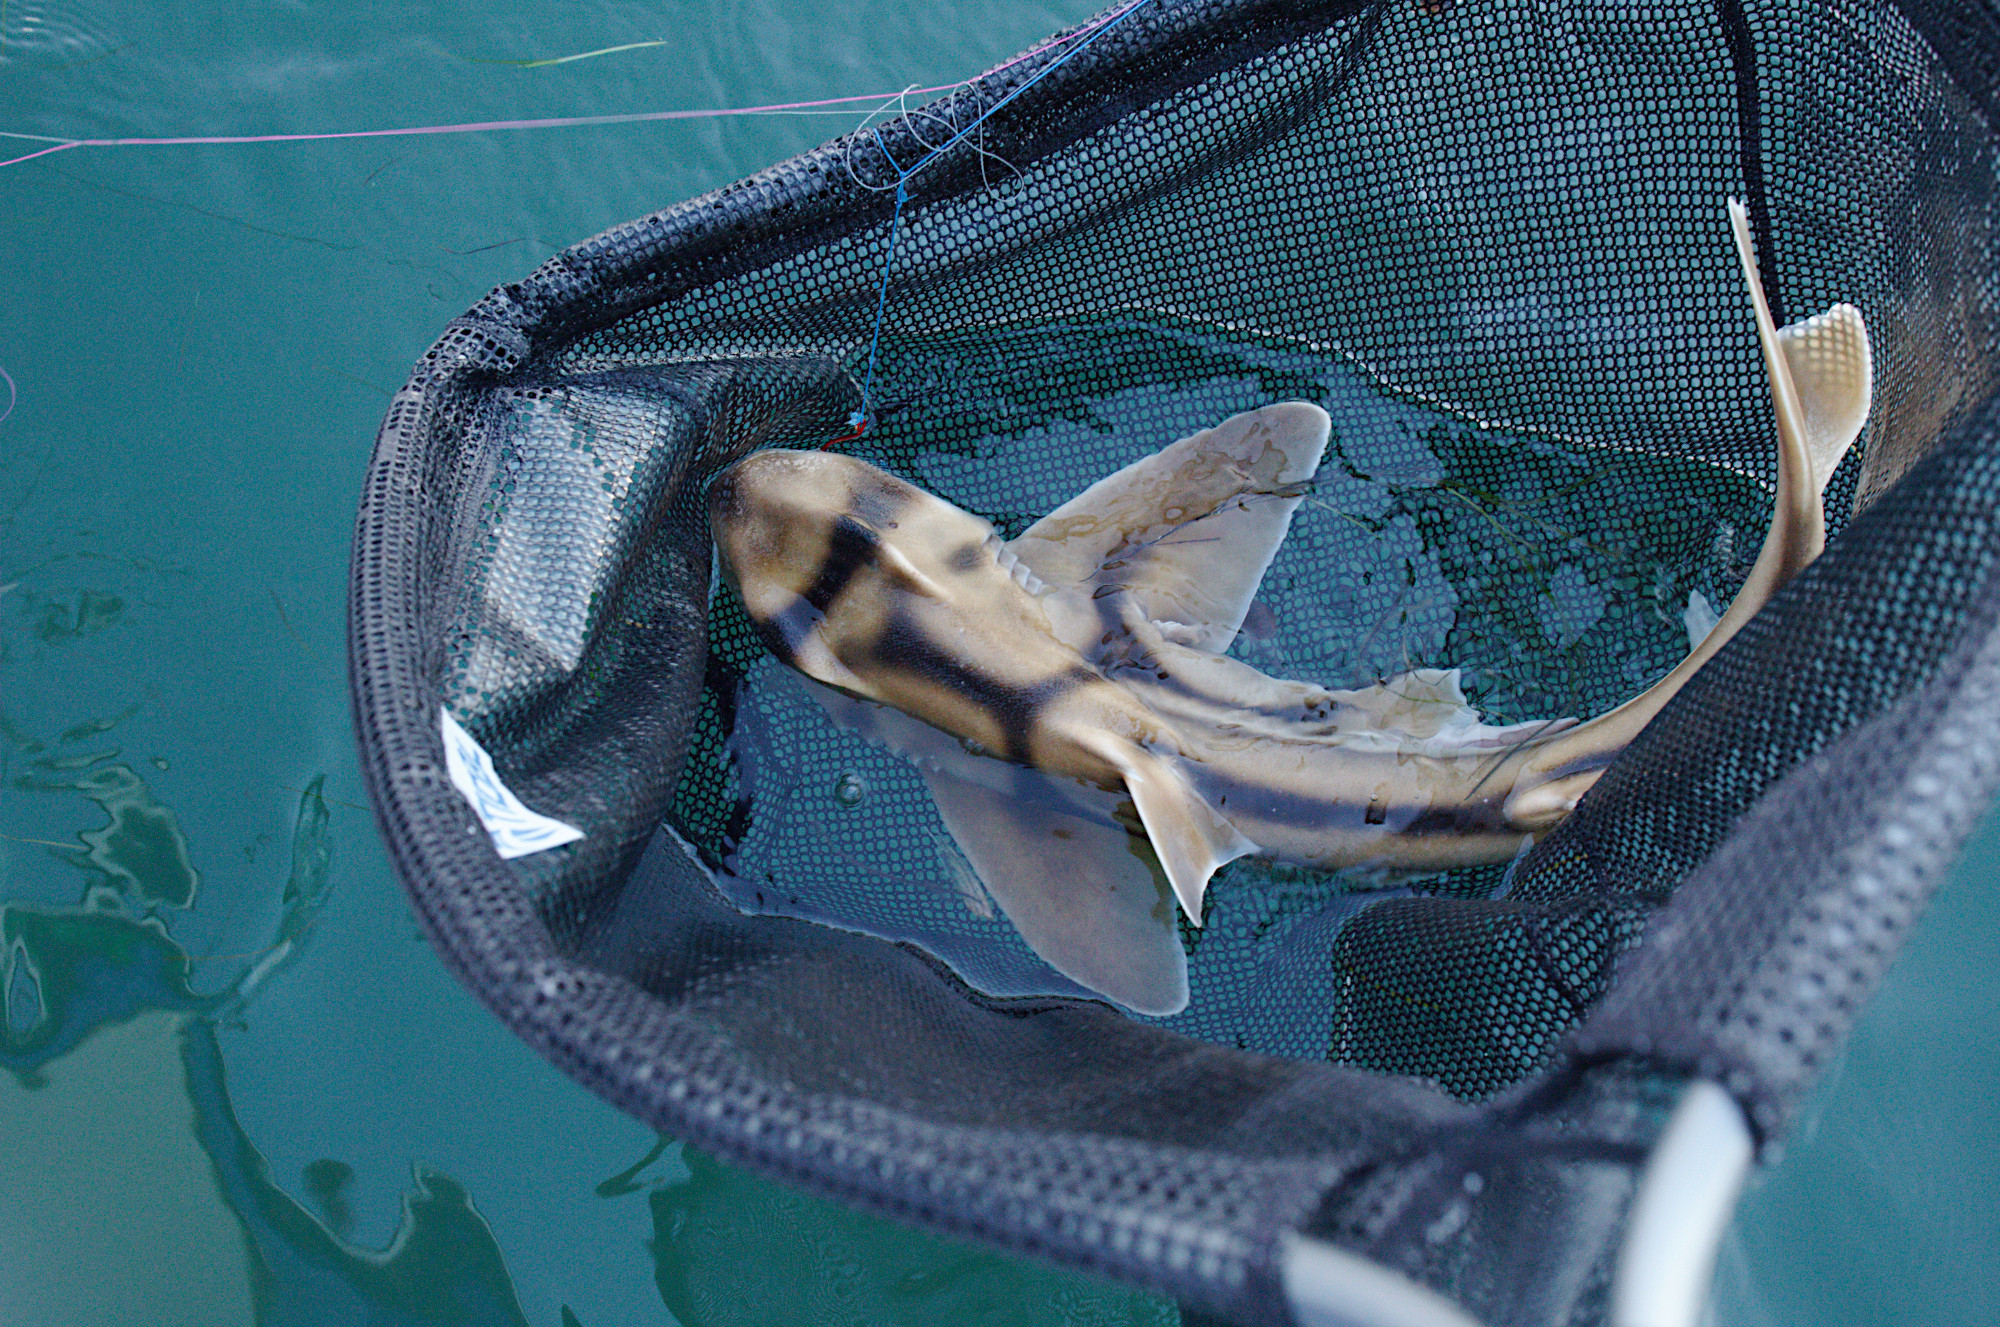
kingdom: Animalia
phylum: Chordata
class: Elasmobranchii
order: Heterodontiformes
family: Heterodontidae
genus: Heterodontus
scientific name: Heterodontus portusjacksoni
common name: Port jackson shark
